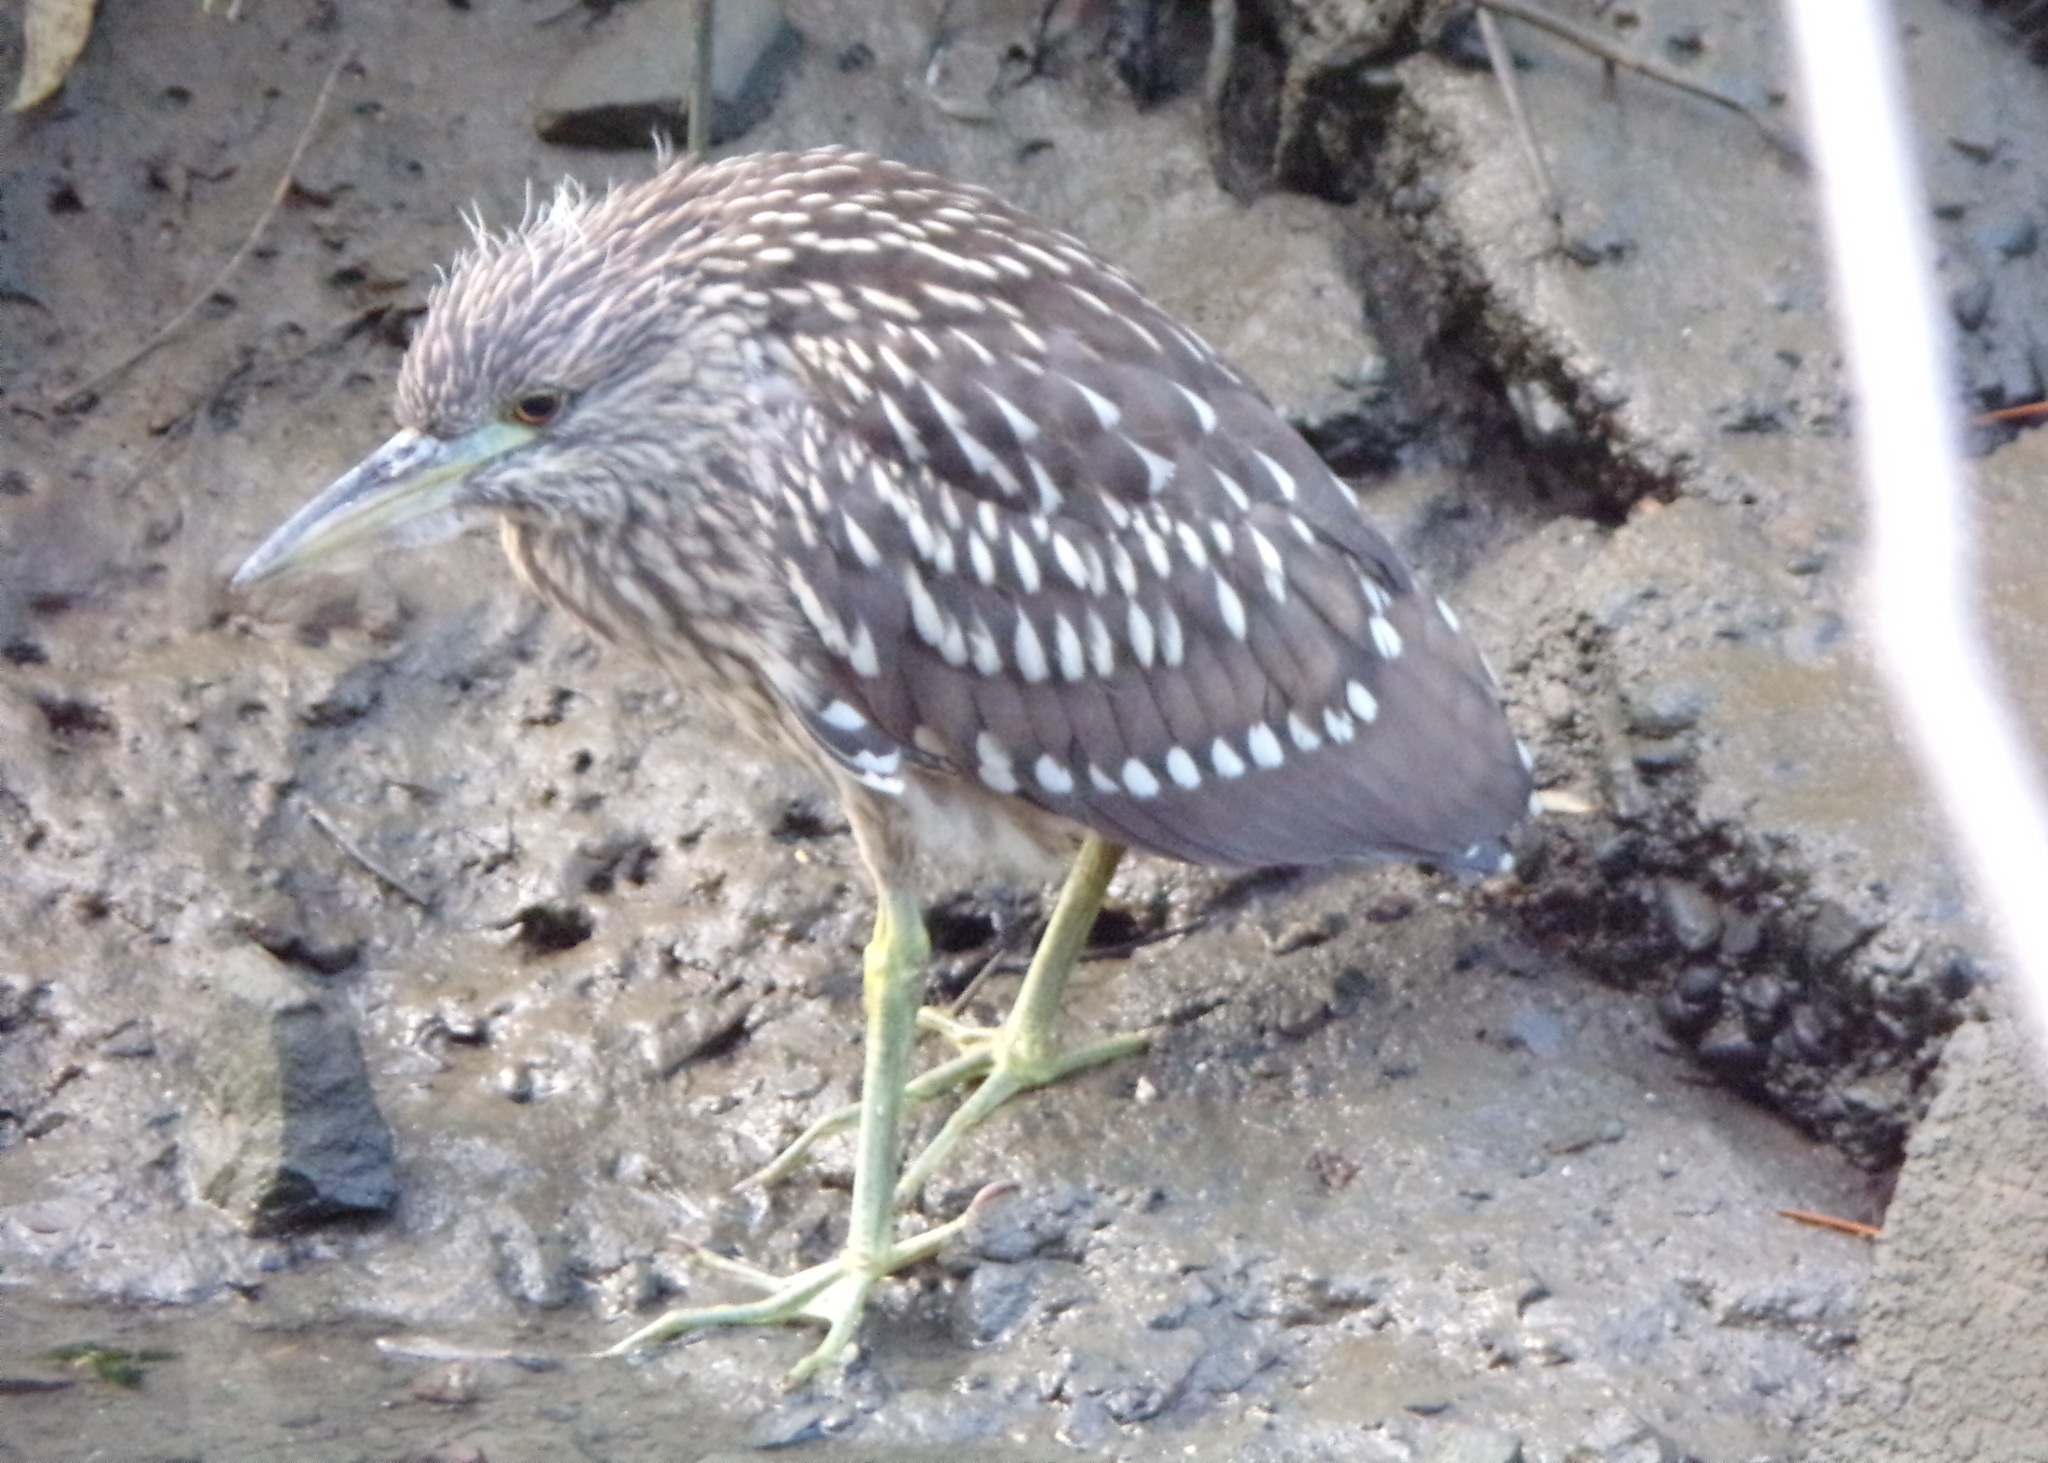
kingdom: Animalia
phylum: Chordata
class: Aves
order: Pelecaniformes
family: Ardeidae
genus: Nycticorax
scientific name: Nycticorax nycticorax
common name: Black-crowned night heron
